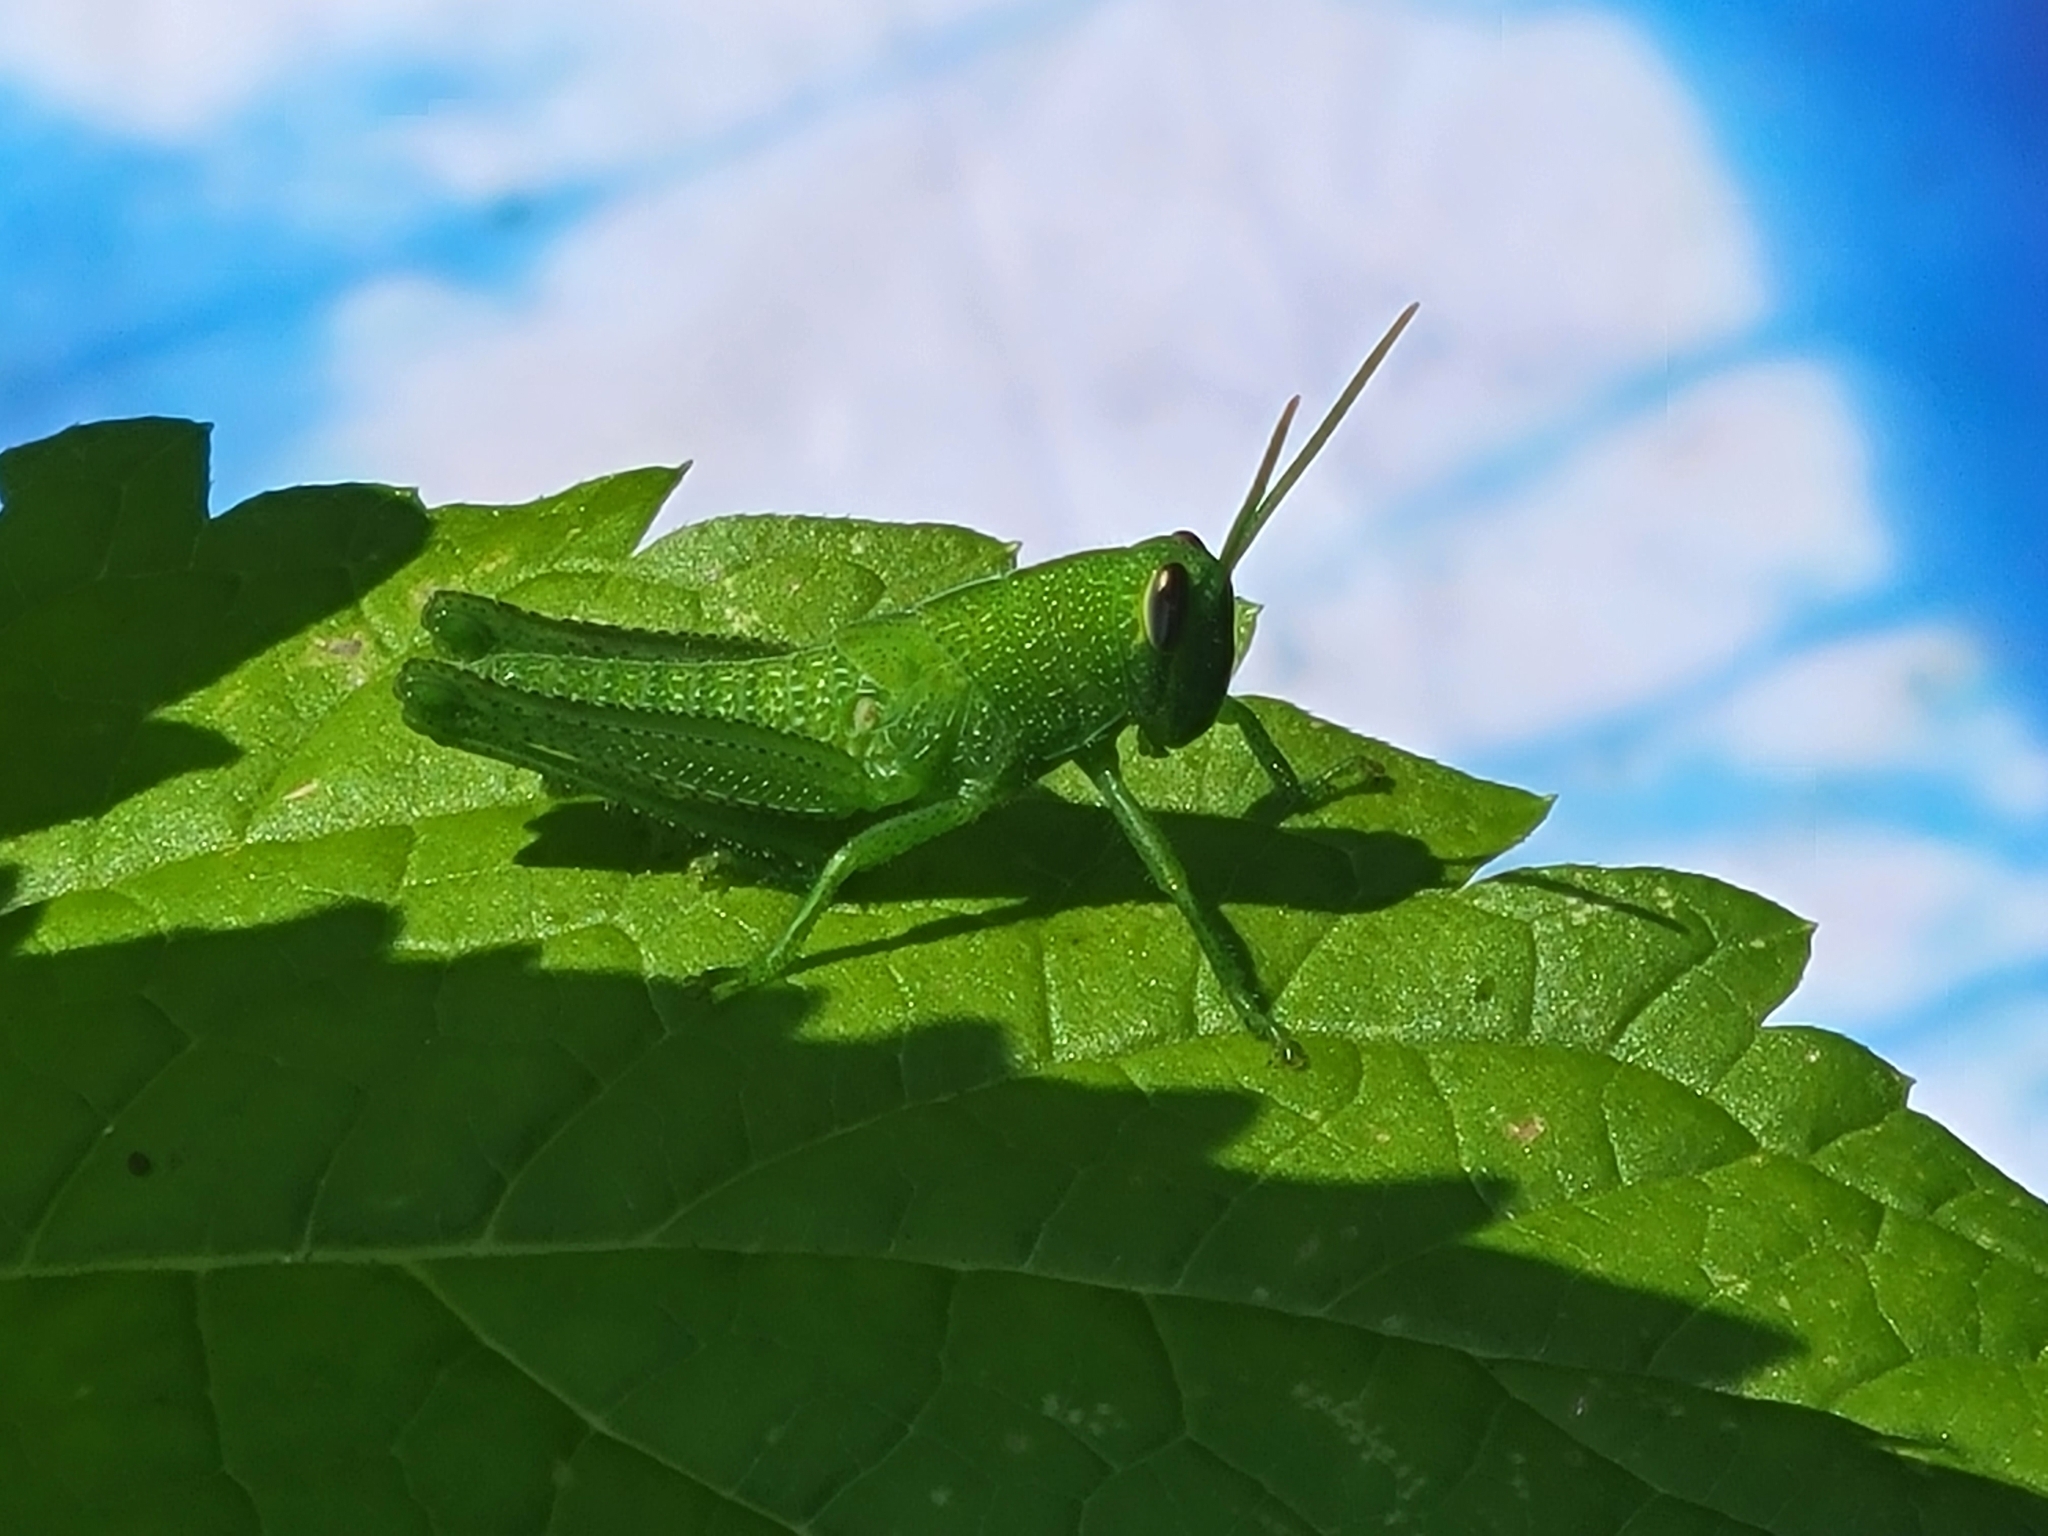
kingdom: Animalia
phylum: Arthropoda
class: Insecta
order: Orthoptera
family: Acrididae
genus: Schistocerca
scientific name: Schistocerca obscura
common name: Obscure bird grasshopper
